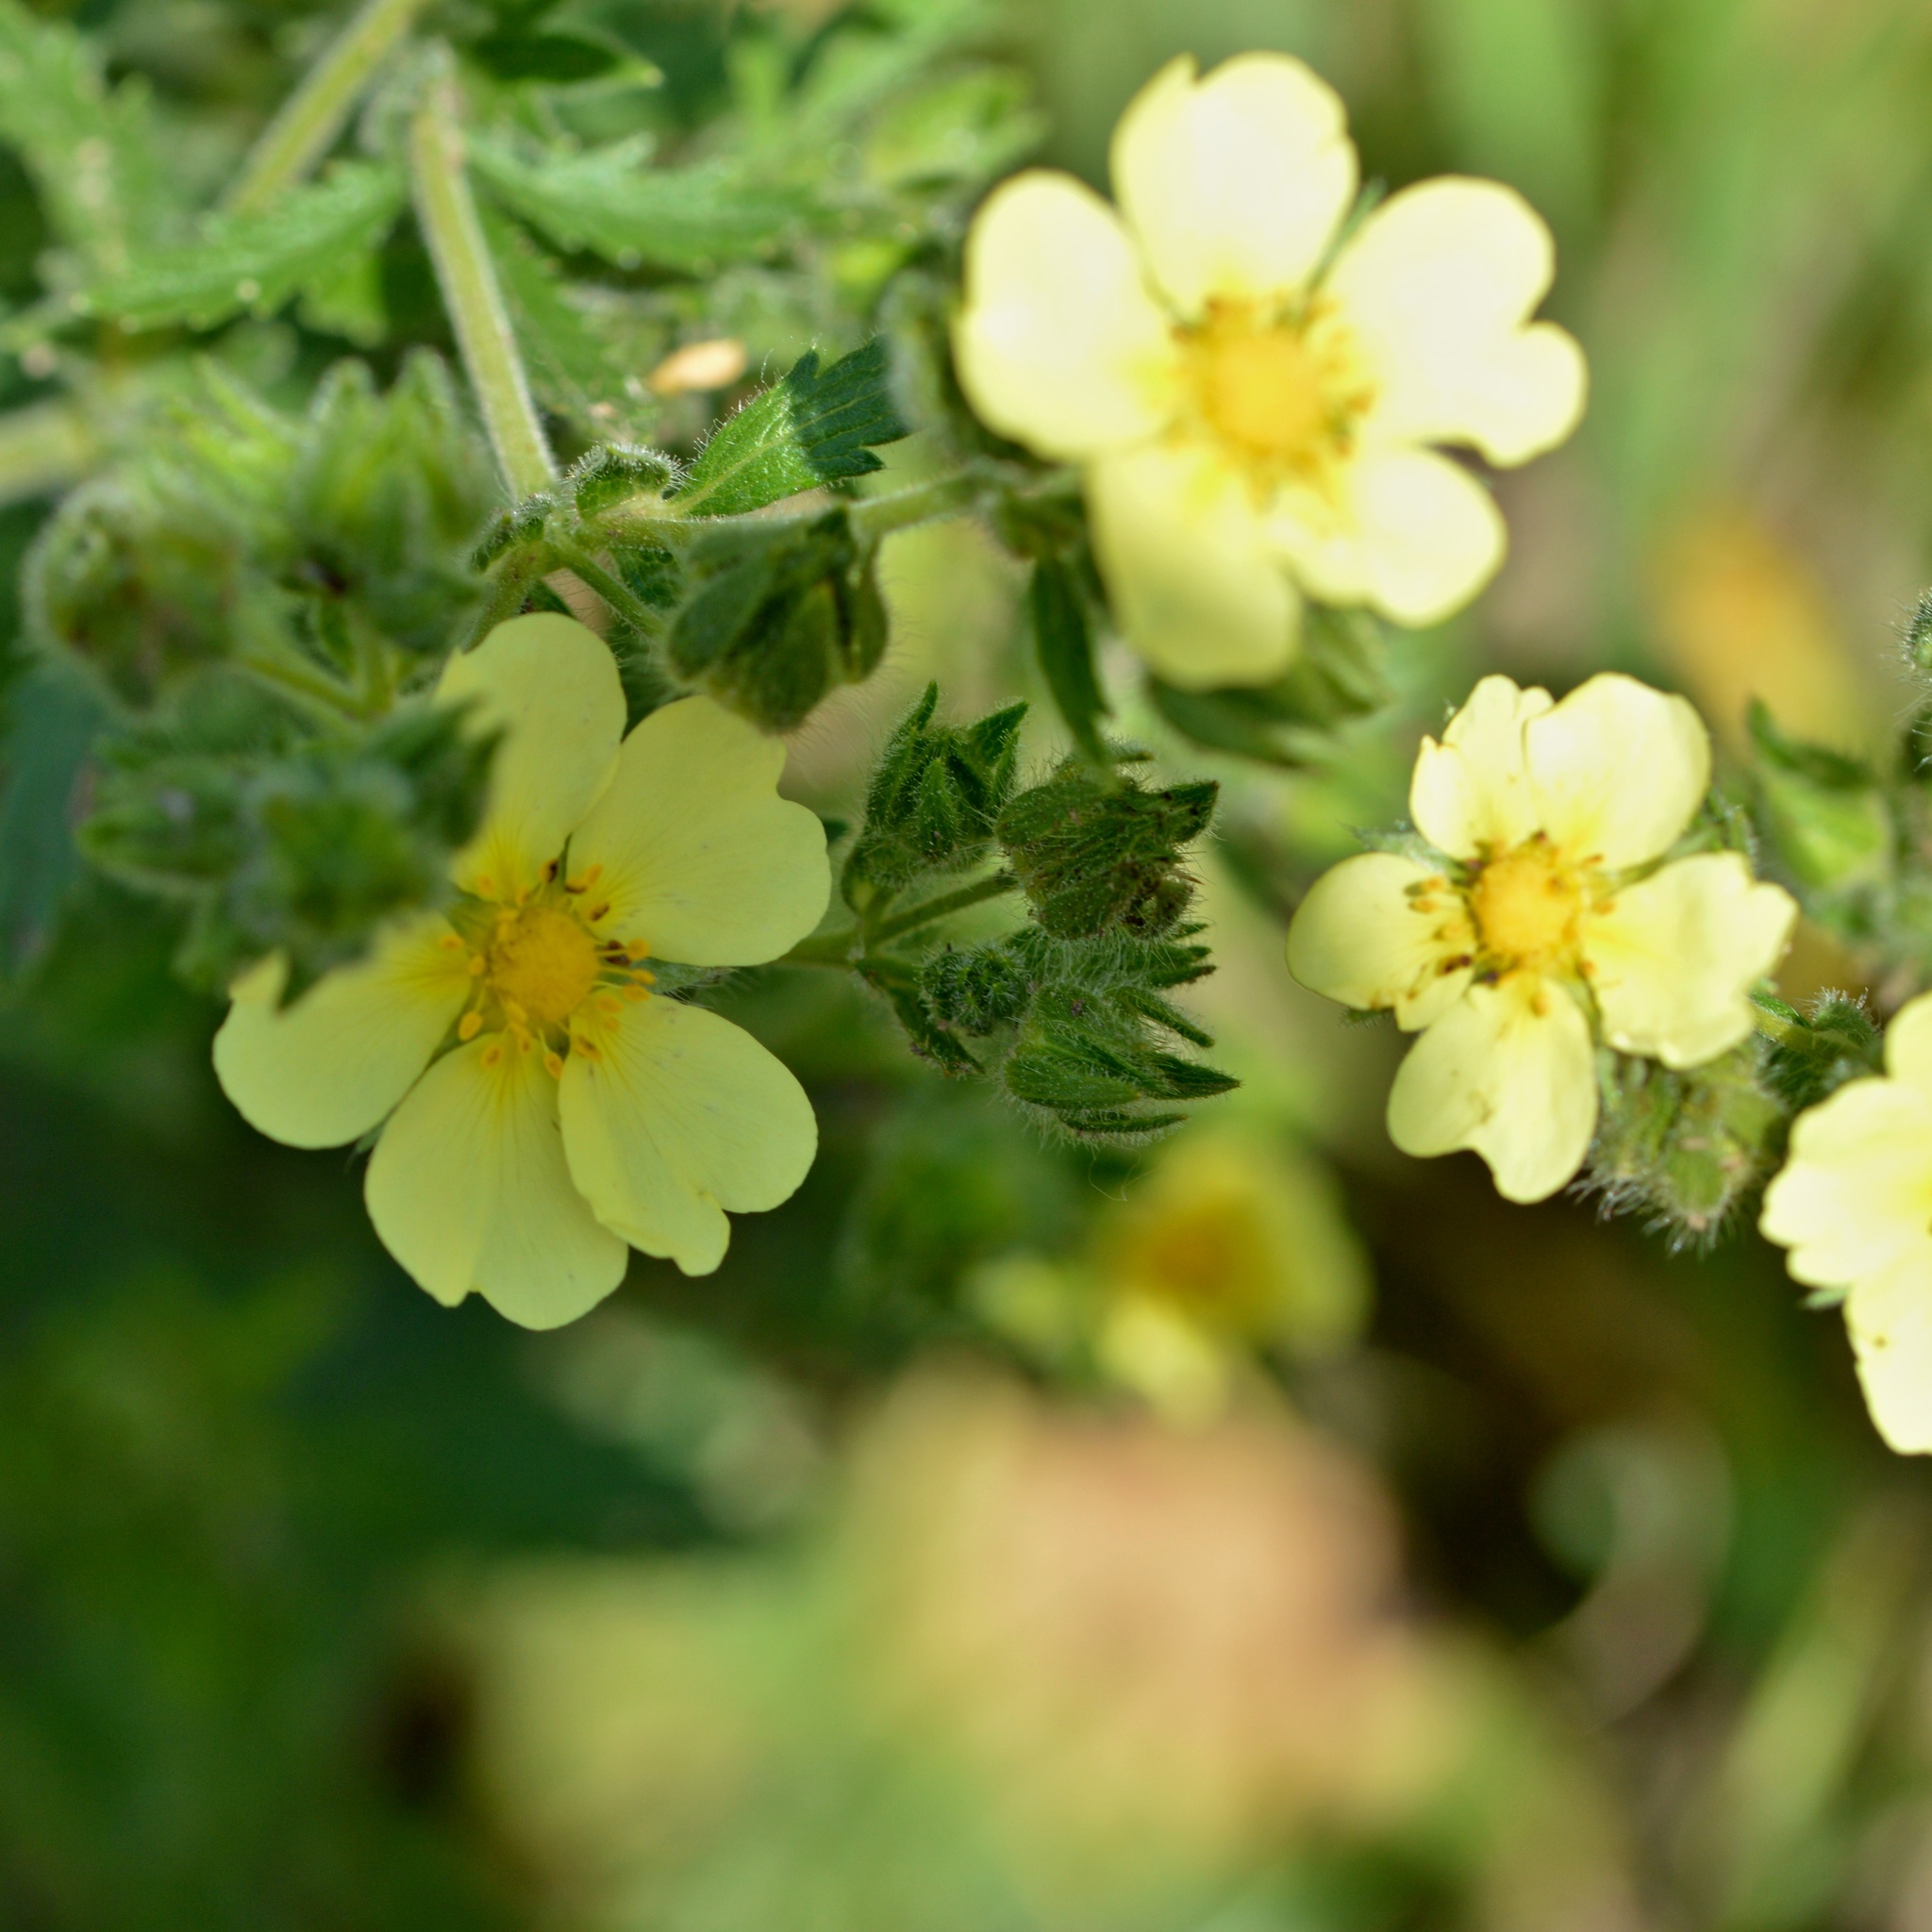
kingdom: Plantae
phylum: Tracheophyta
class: Magnoliopsida
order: Rosales
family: Rosaceae
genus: Potentilla
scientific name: Potentilla recta
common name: Sulphur cinquefoil
